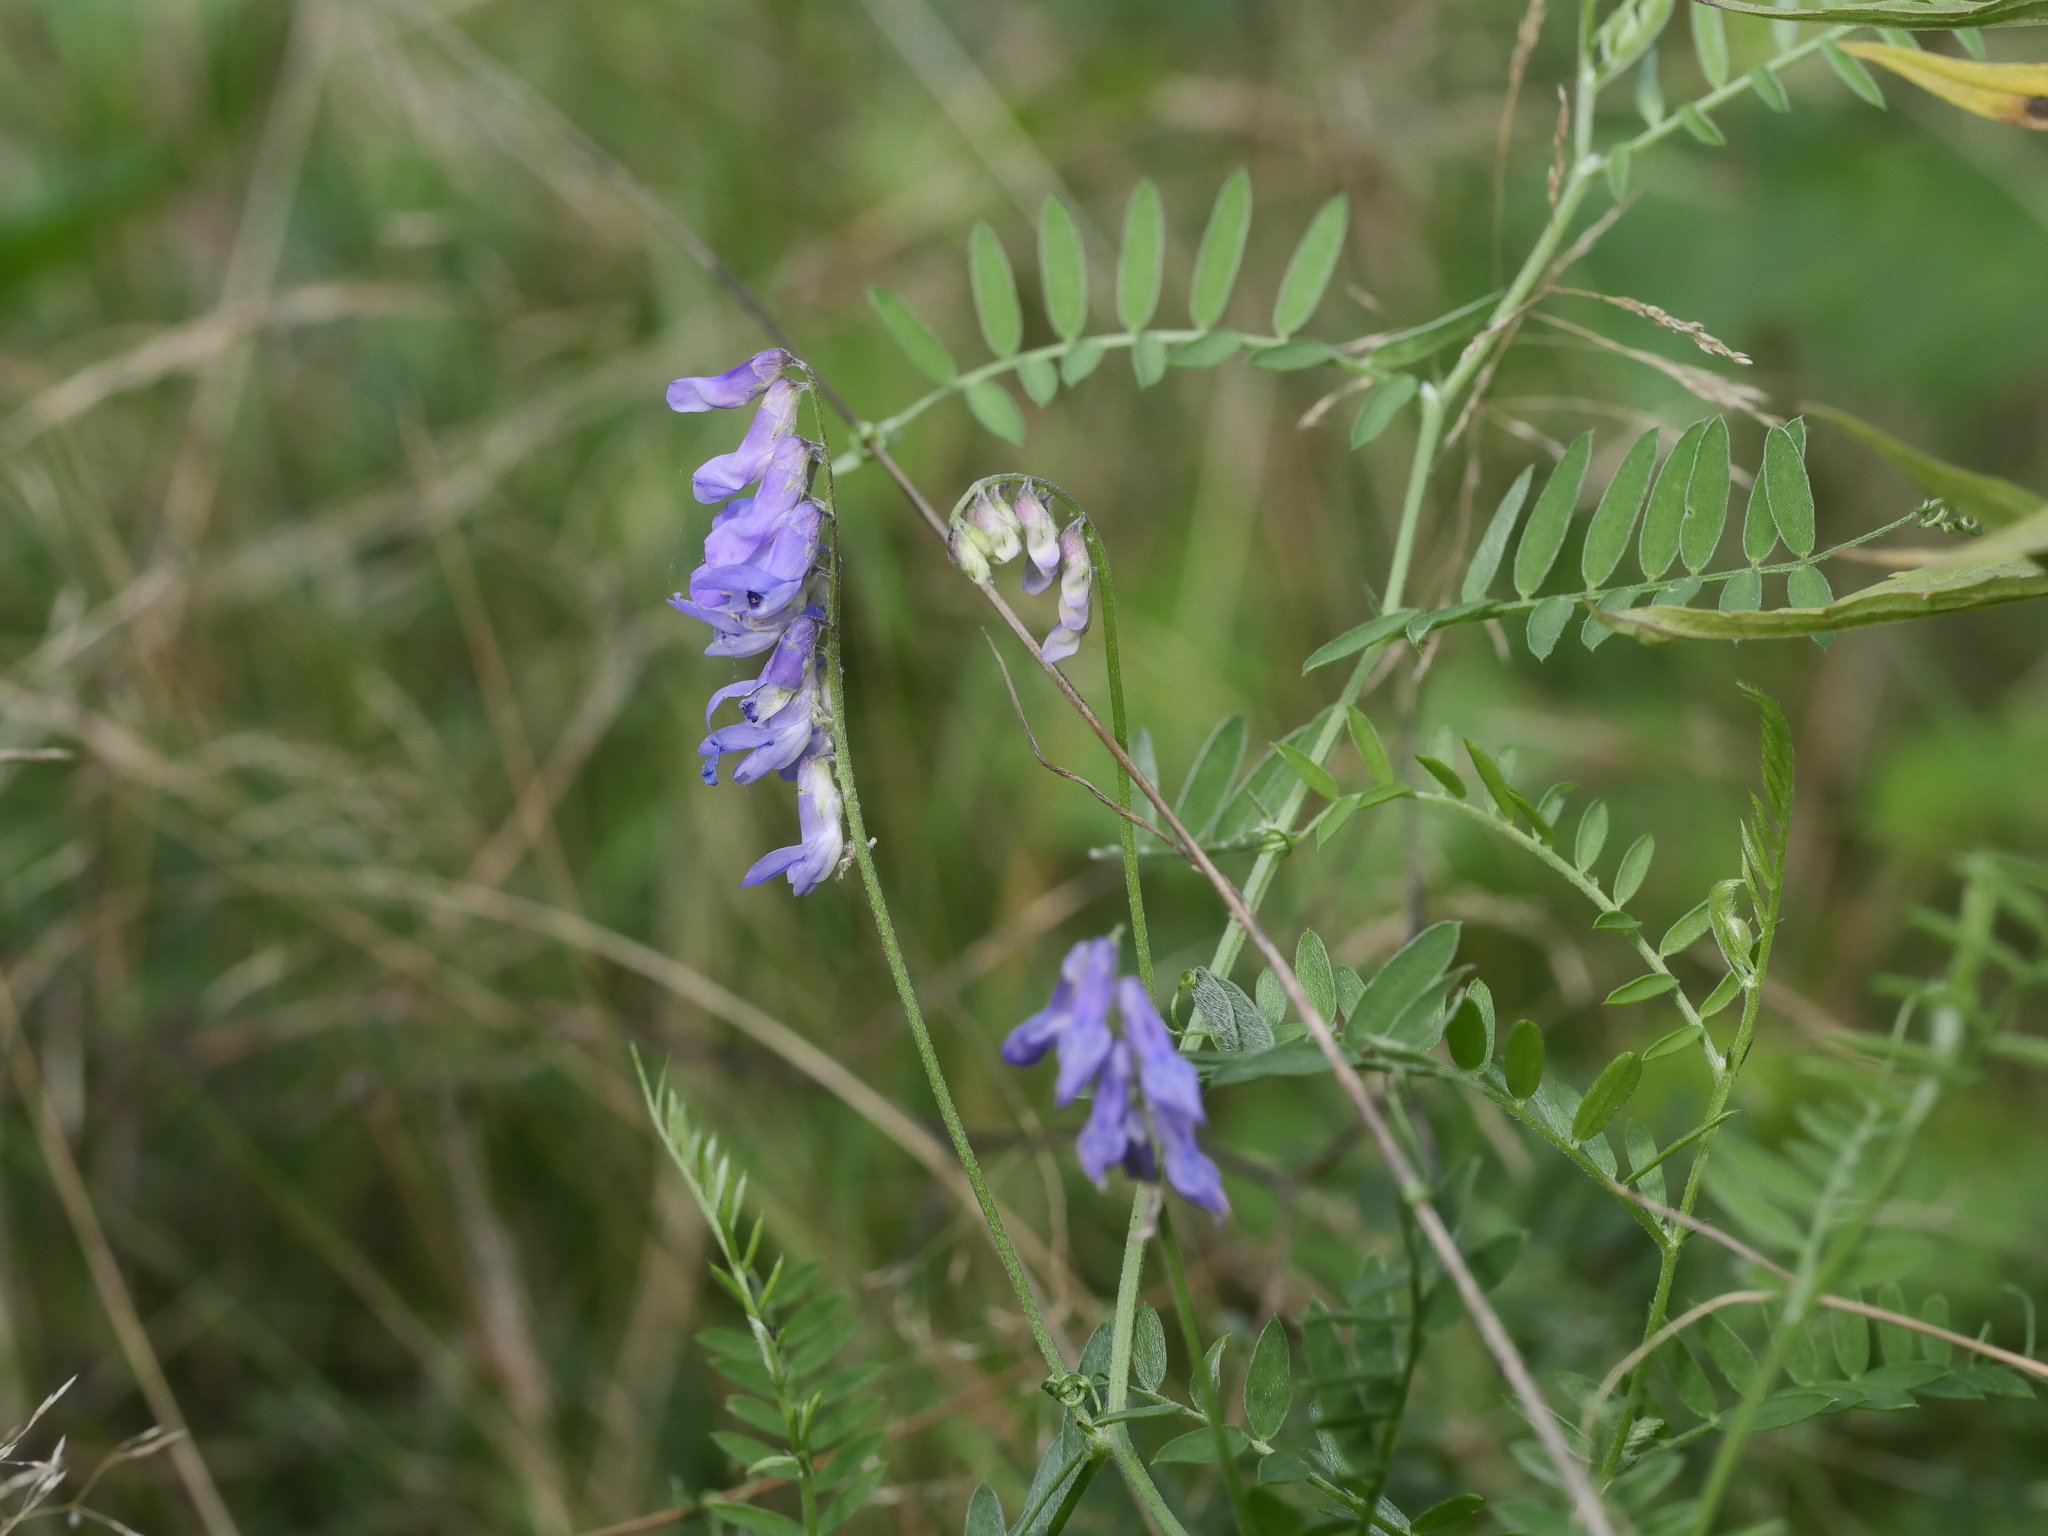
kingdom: Plantae
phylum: Tracheophyta
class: Magnoliopsida
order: Fabales
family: Fabaceae
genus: Vicia
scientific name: Vicia cracca
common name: Bird vetch
